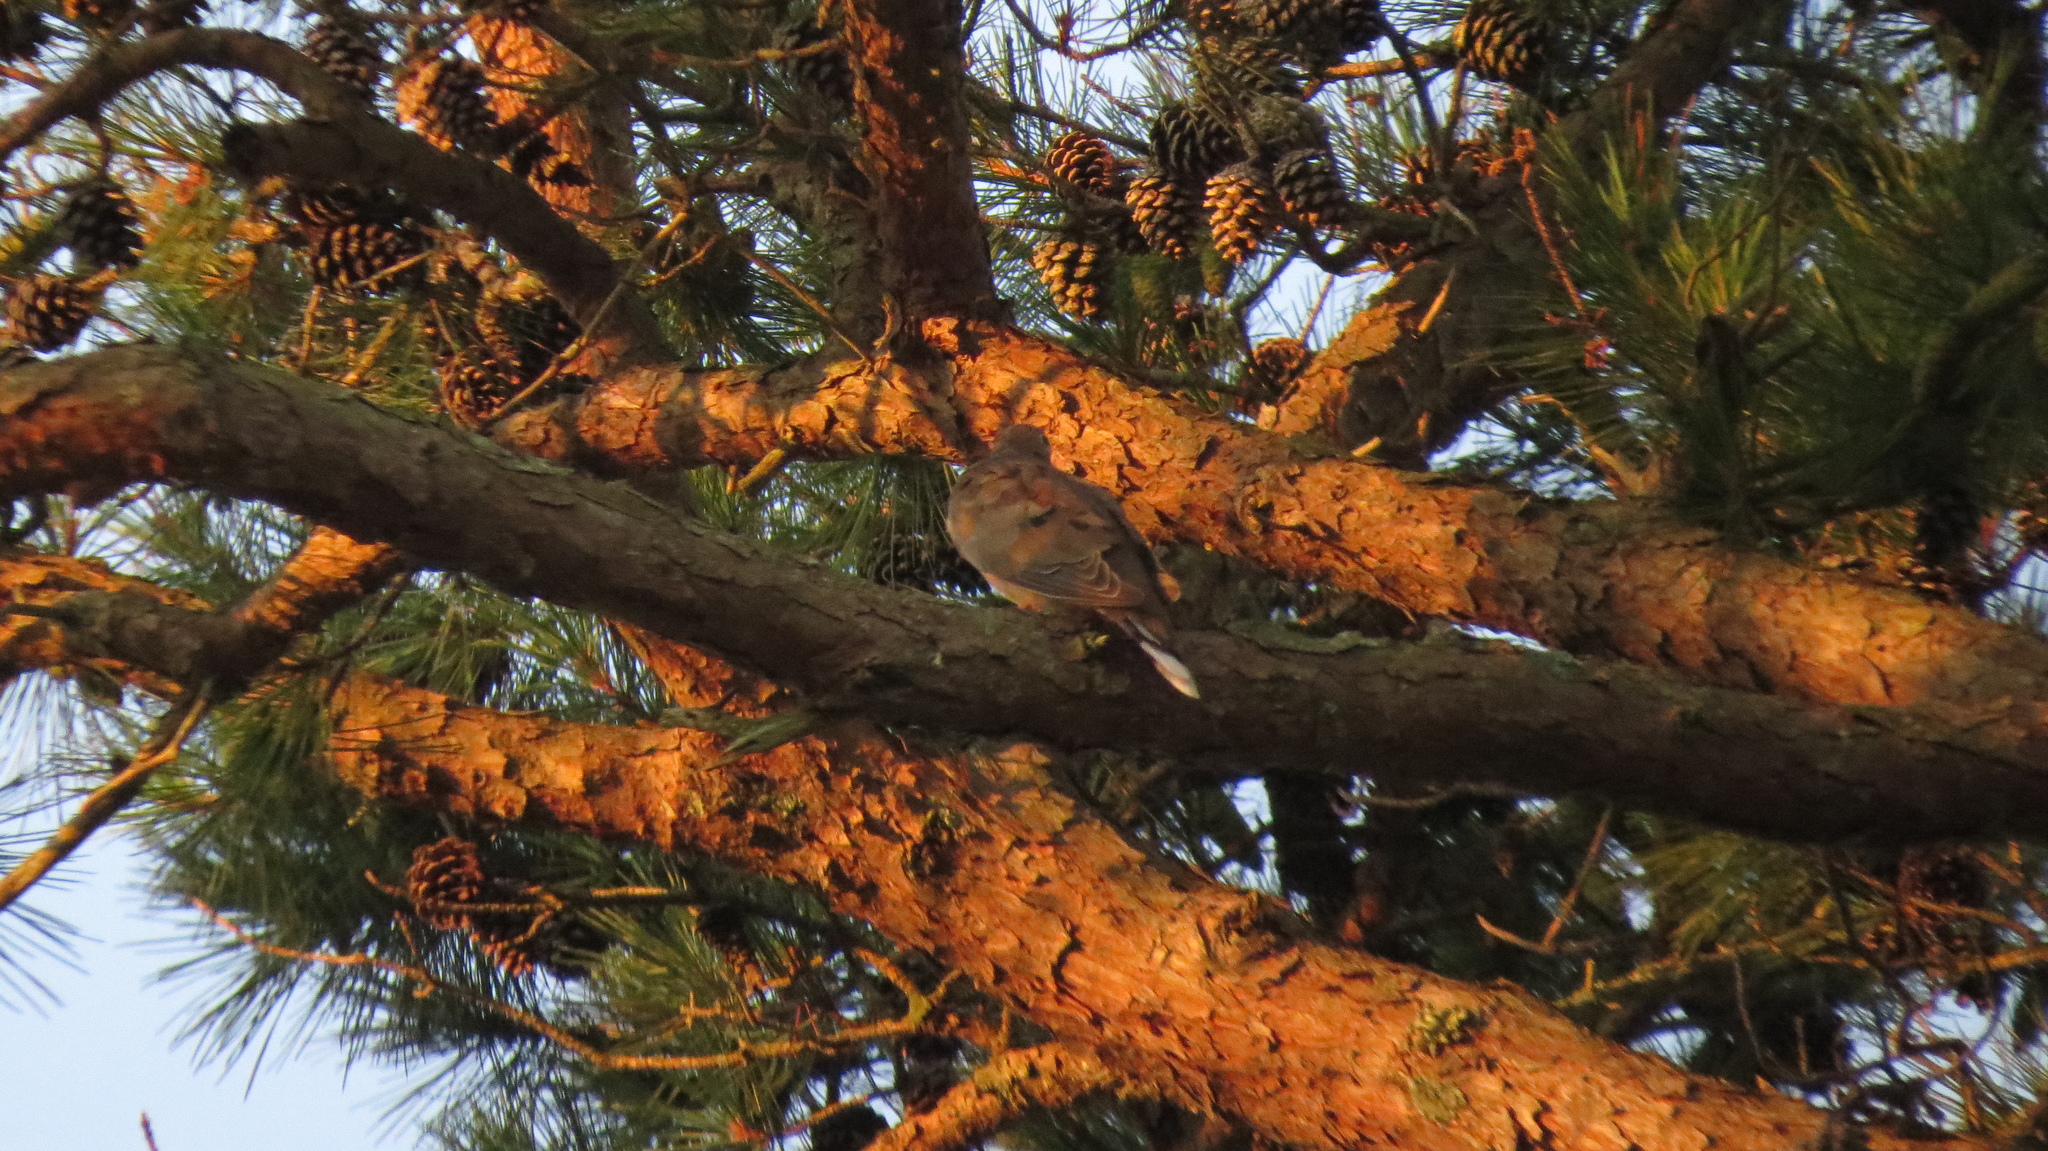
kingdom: Animalia
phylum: Chordata
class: Aves
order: Columbiformes
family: Columbidae
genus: Zenaida
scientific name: Zenaida macroura
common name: Mourning dove
